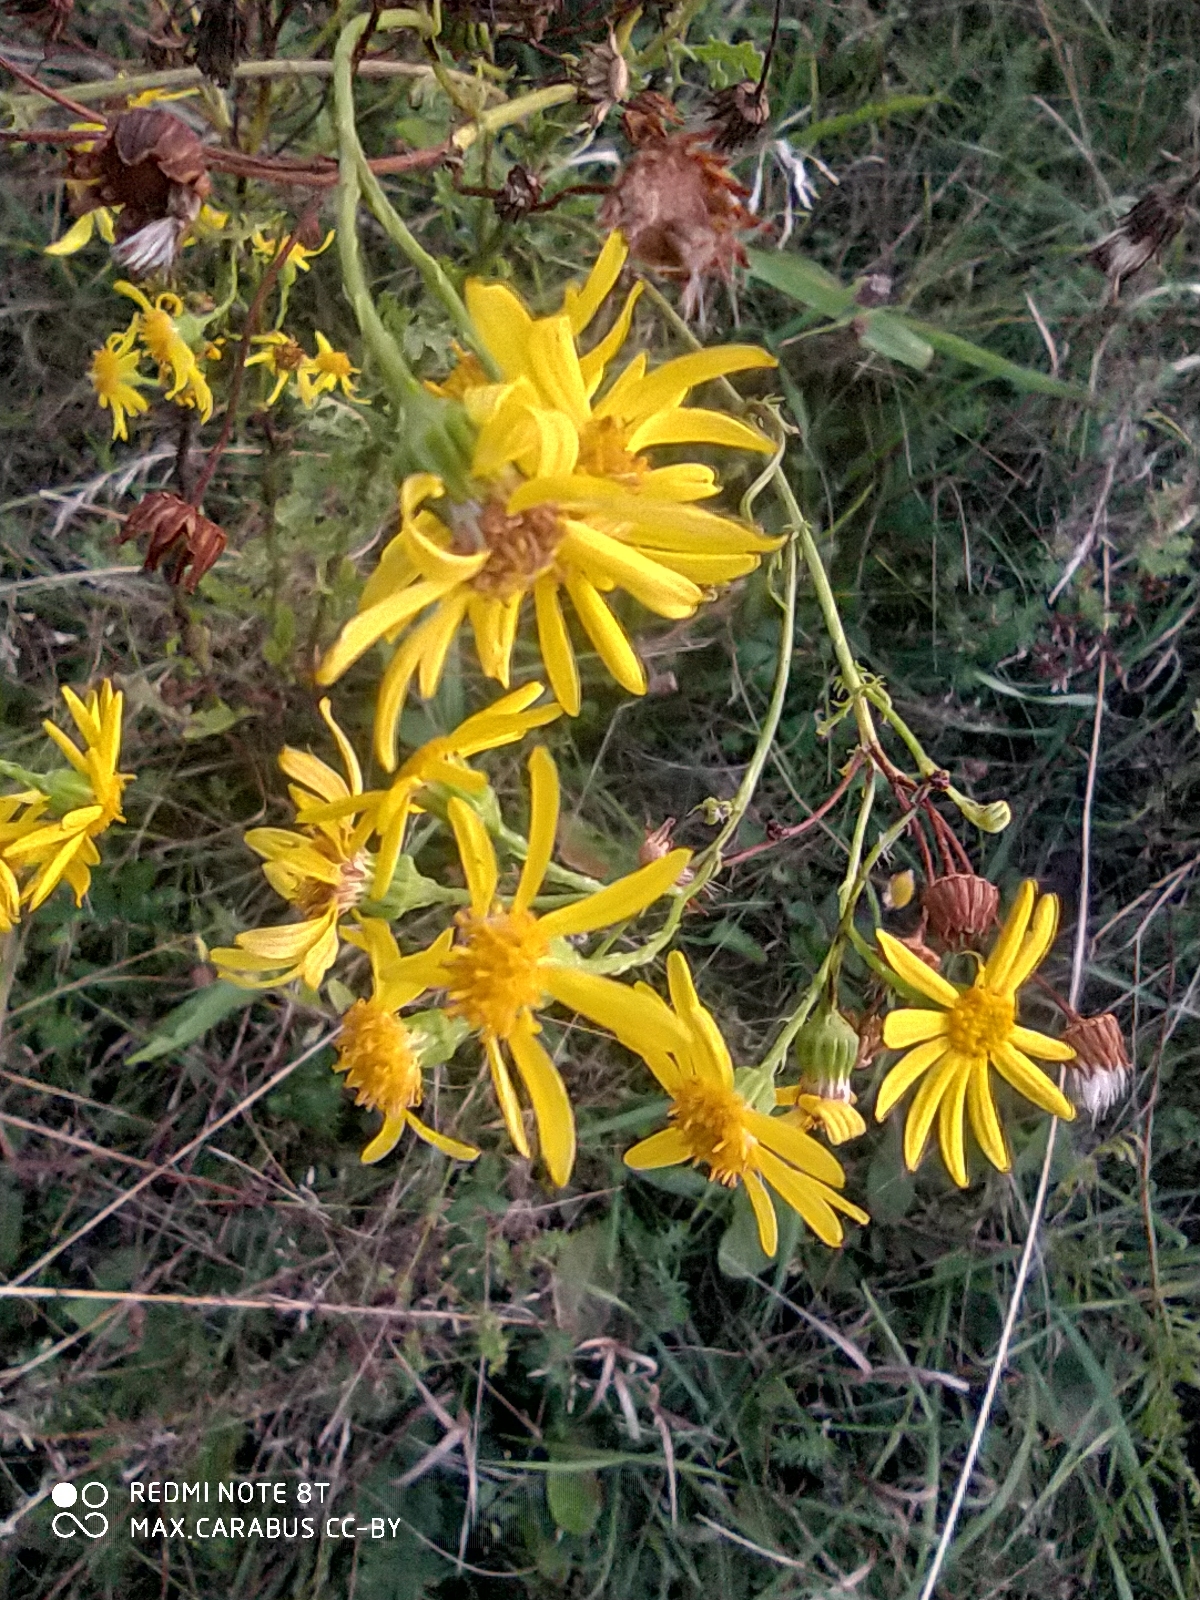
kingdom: Plantae
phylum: Tracheophyta
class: Magnoliopsida
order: Asterales
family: Asteraceae
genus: Jacobaea
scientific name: Jacobaea vulgaris
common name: Stinking willie
